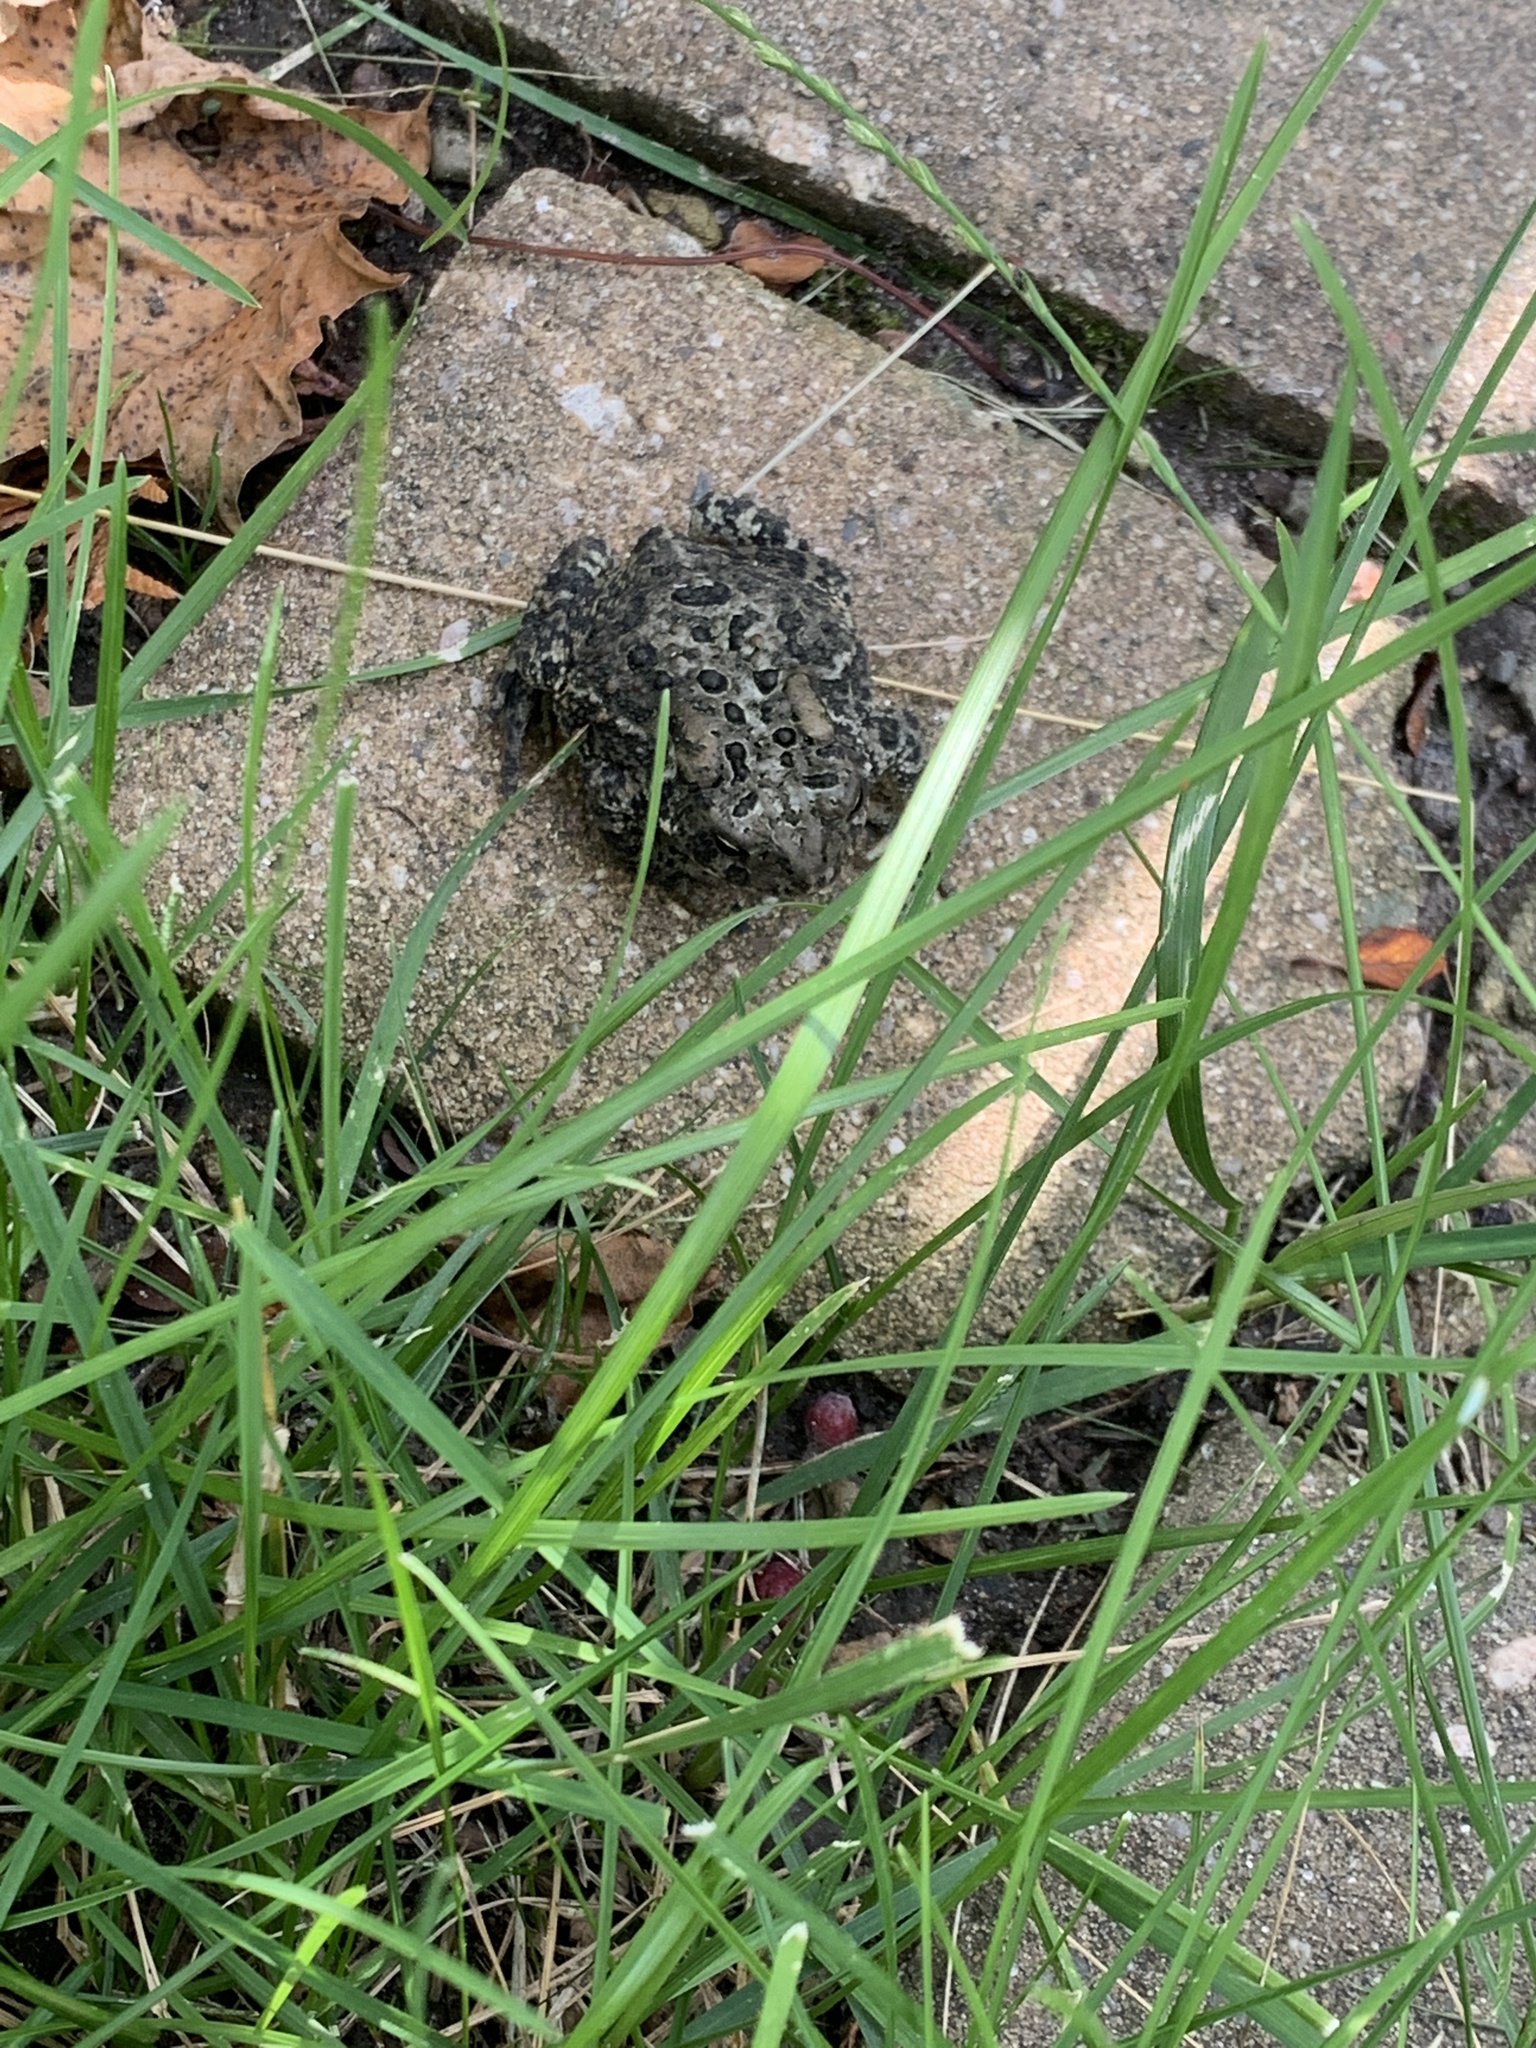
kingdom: Animalia
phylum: Chordata
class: Amphibia
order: Anura
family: Bufonidae
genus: Anaxyrus
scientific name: Anaxyrus americanus
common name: American toad
